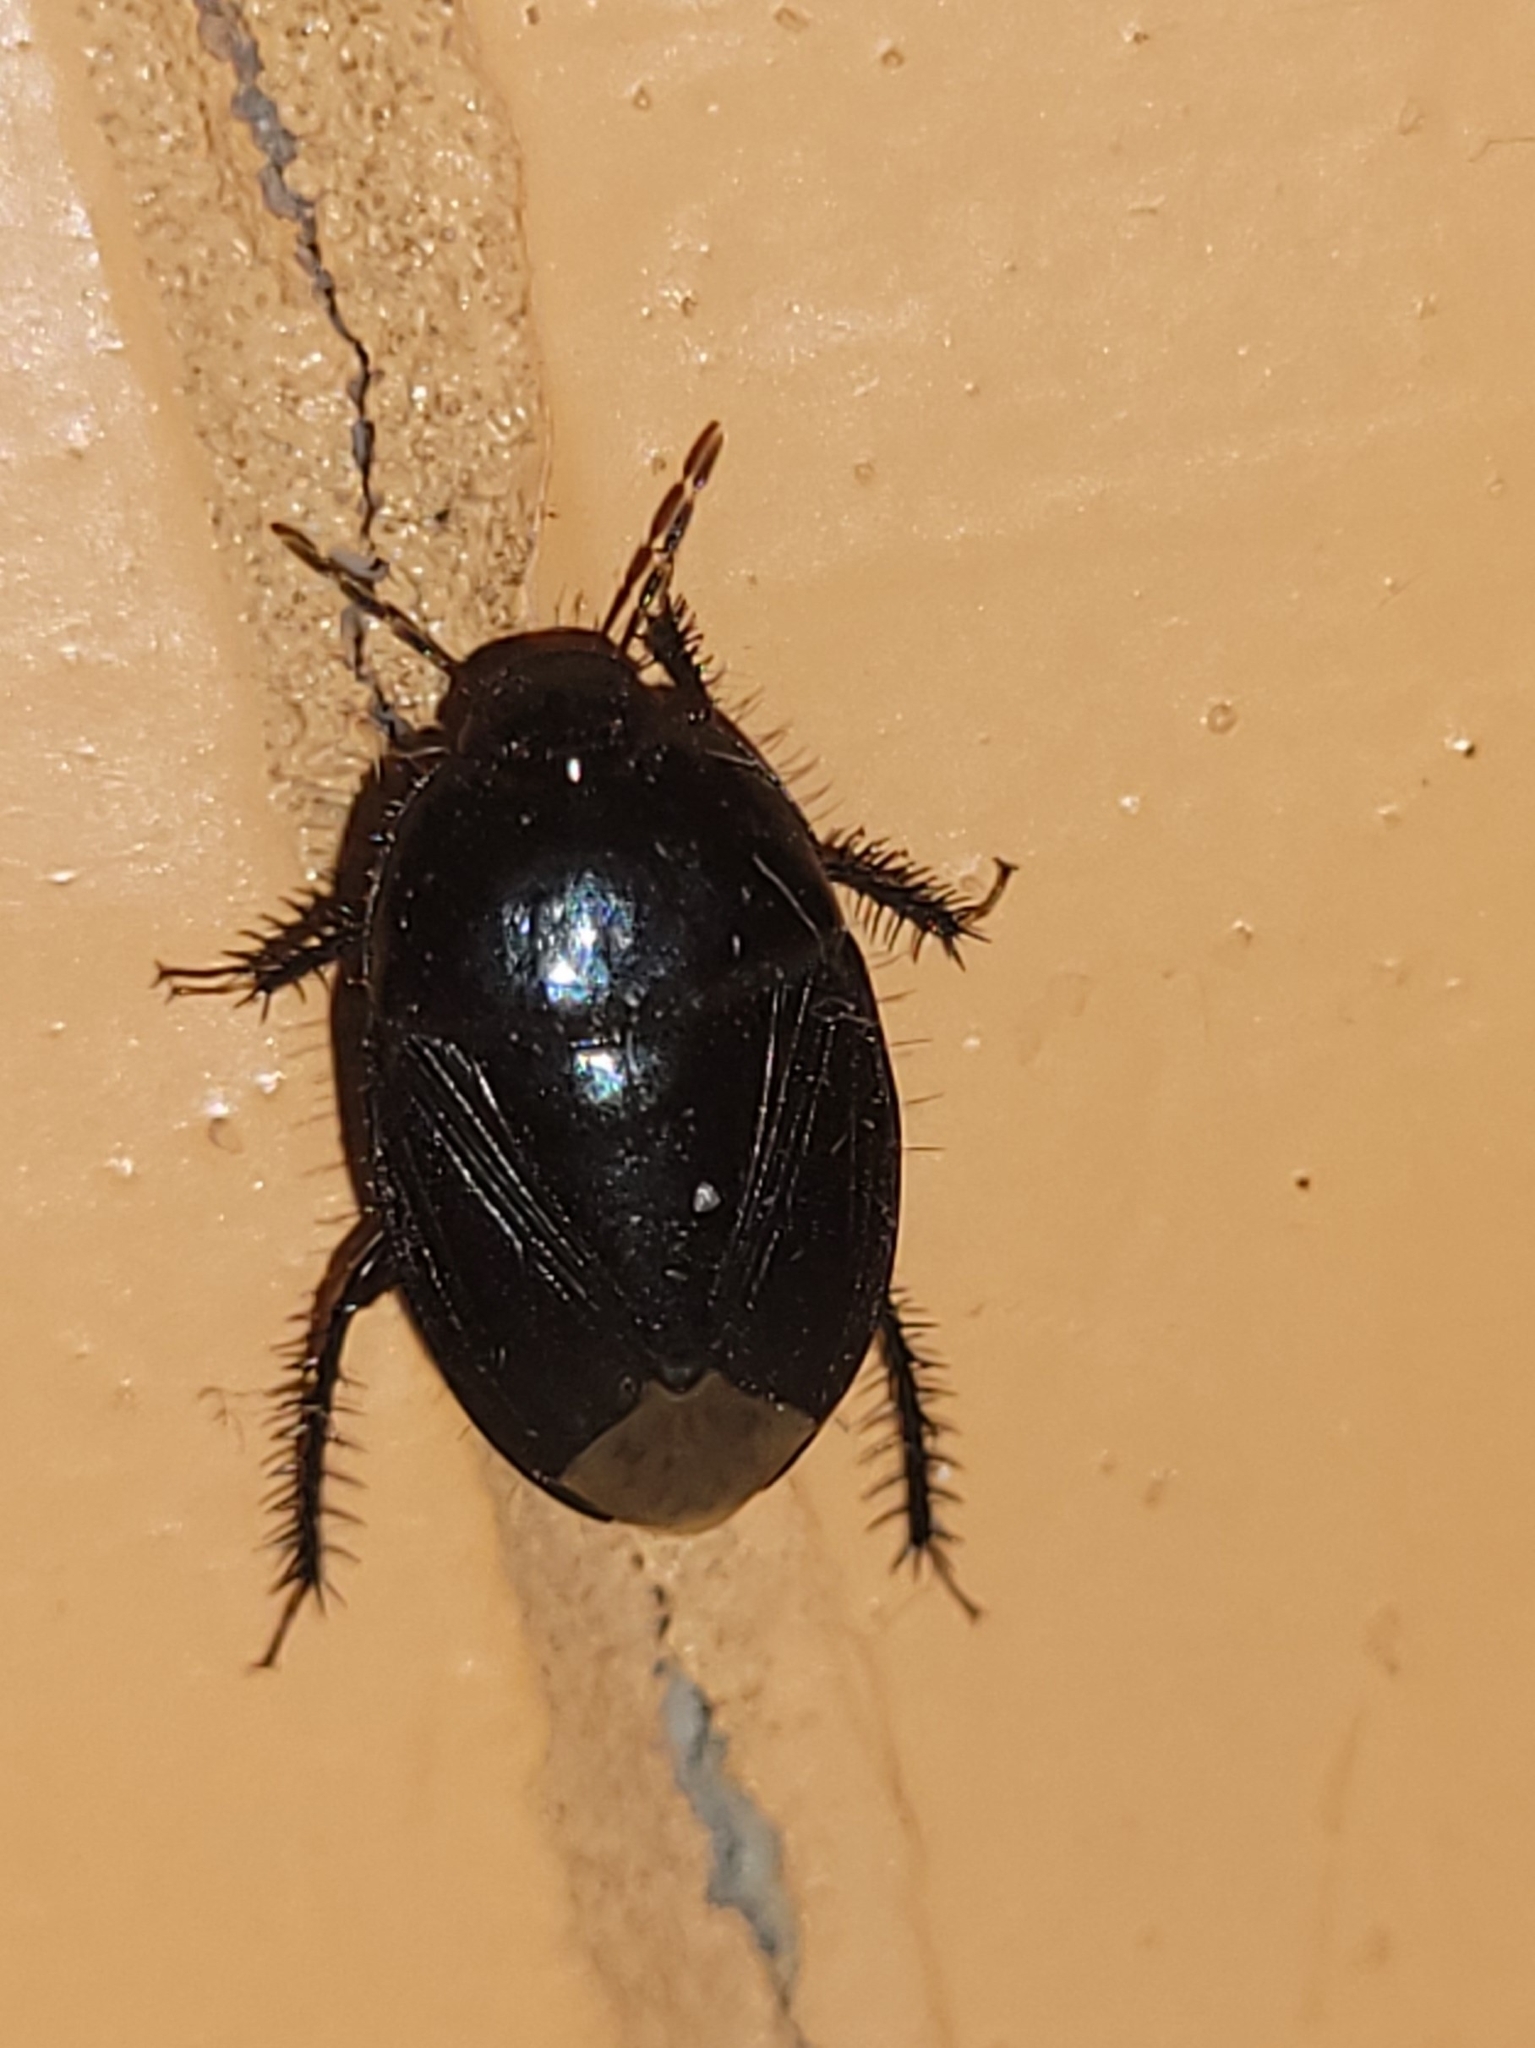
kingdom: Animalia
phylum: Arthropoda
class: Insecta
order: Hemiptera
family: Cydnidae
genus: Macroscytus
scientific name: Macroscytus brunneus
